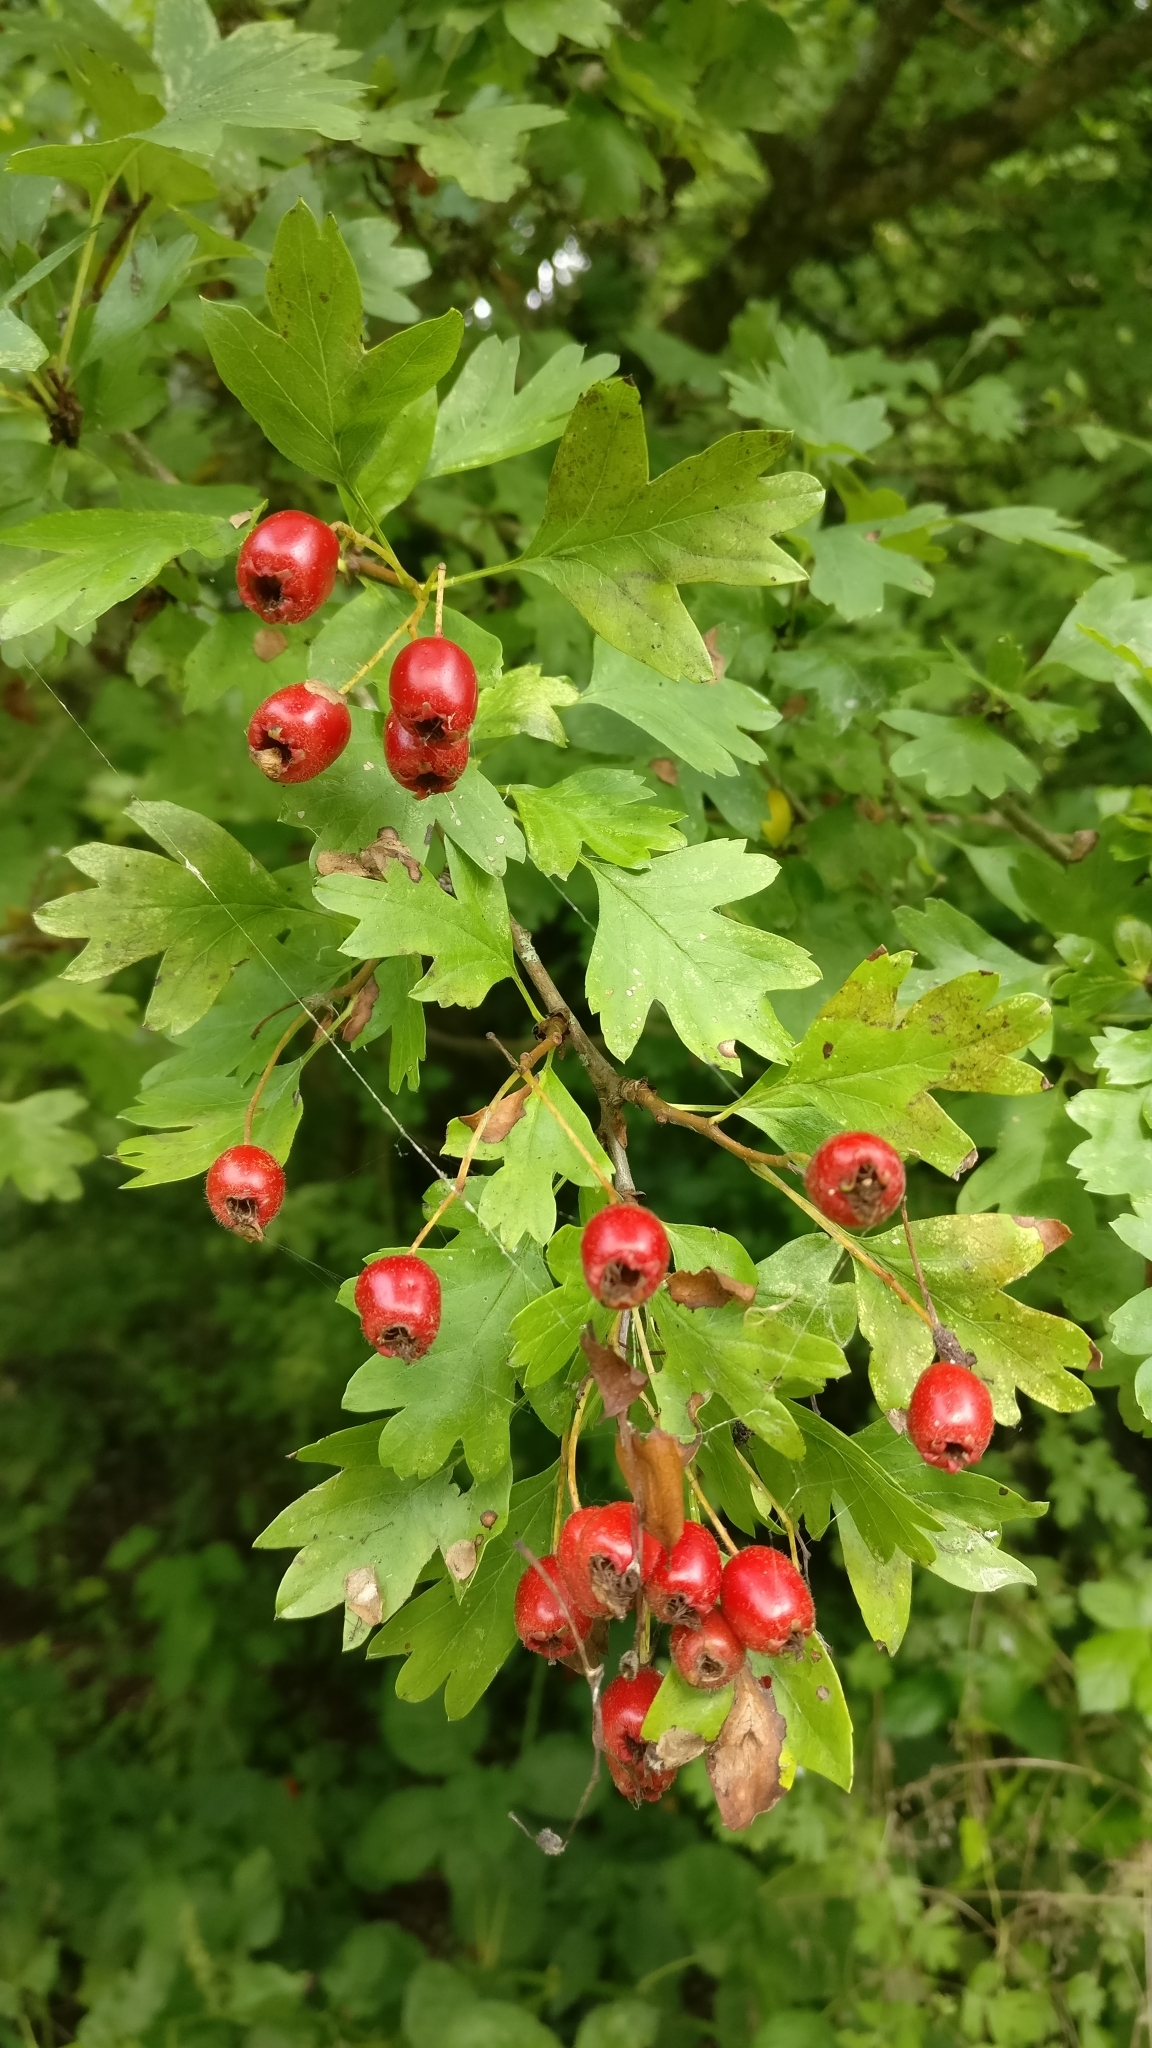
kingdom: Plantae
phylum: Tracheophyta
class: Magnoliopsida
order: Rosales
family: Rosaceae
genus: Crataegus
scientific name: Crataegus monogyna
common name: Hawthorn
